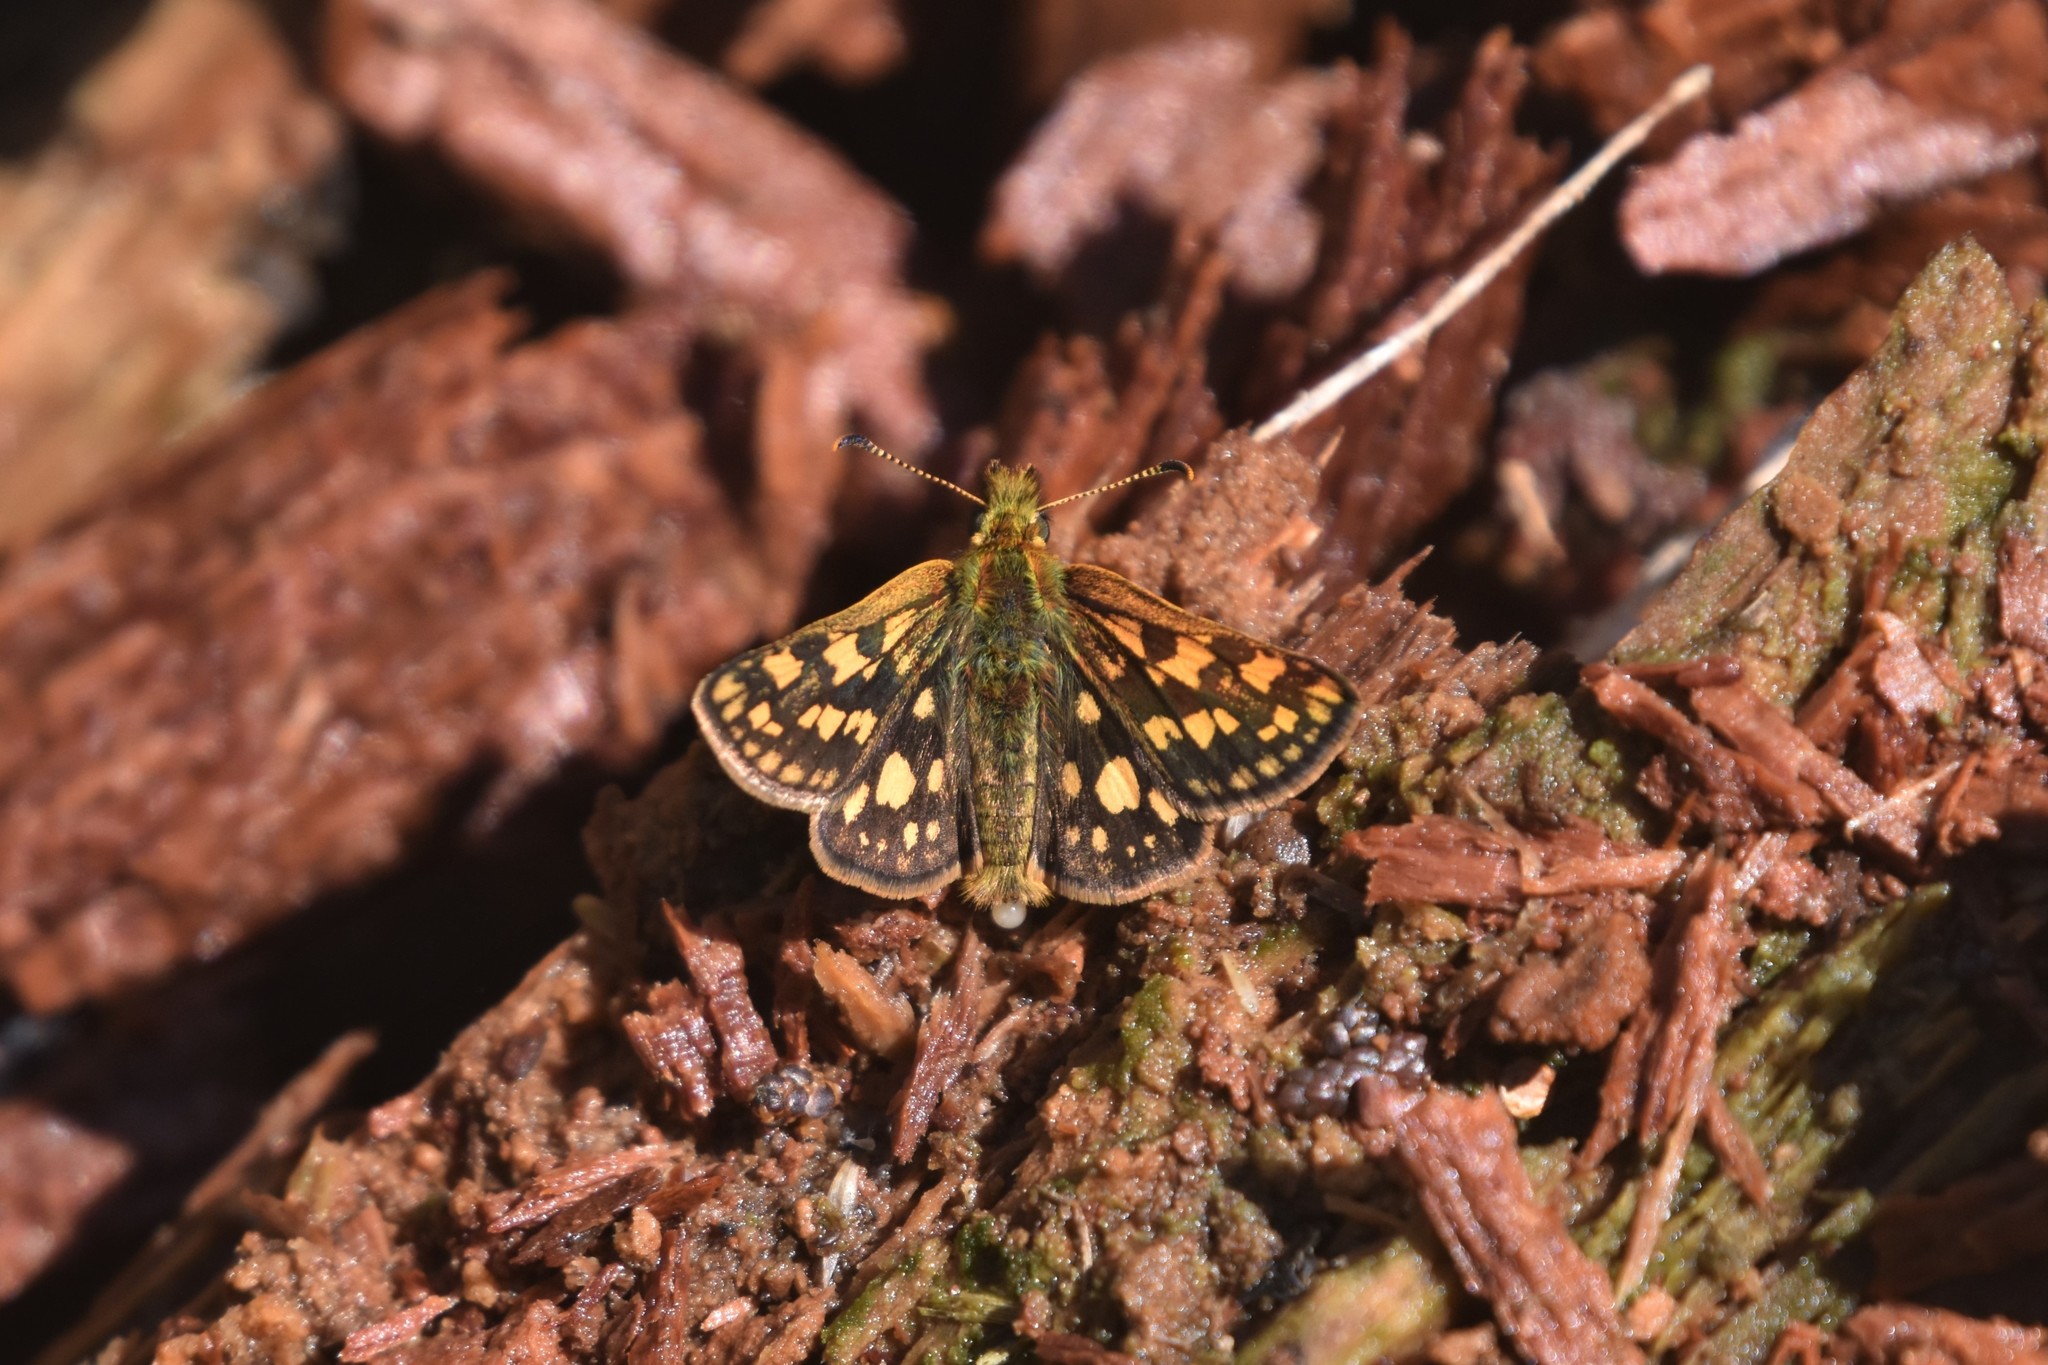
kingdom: Animalia
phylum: Arthropoda
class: Insecta
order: Lepidoptera
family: Hesperiidae
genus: Carterocephalus
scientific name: Carterocephalus skada
